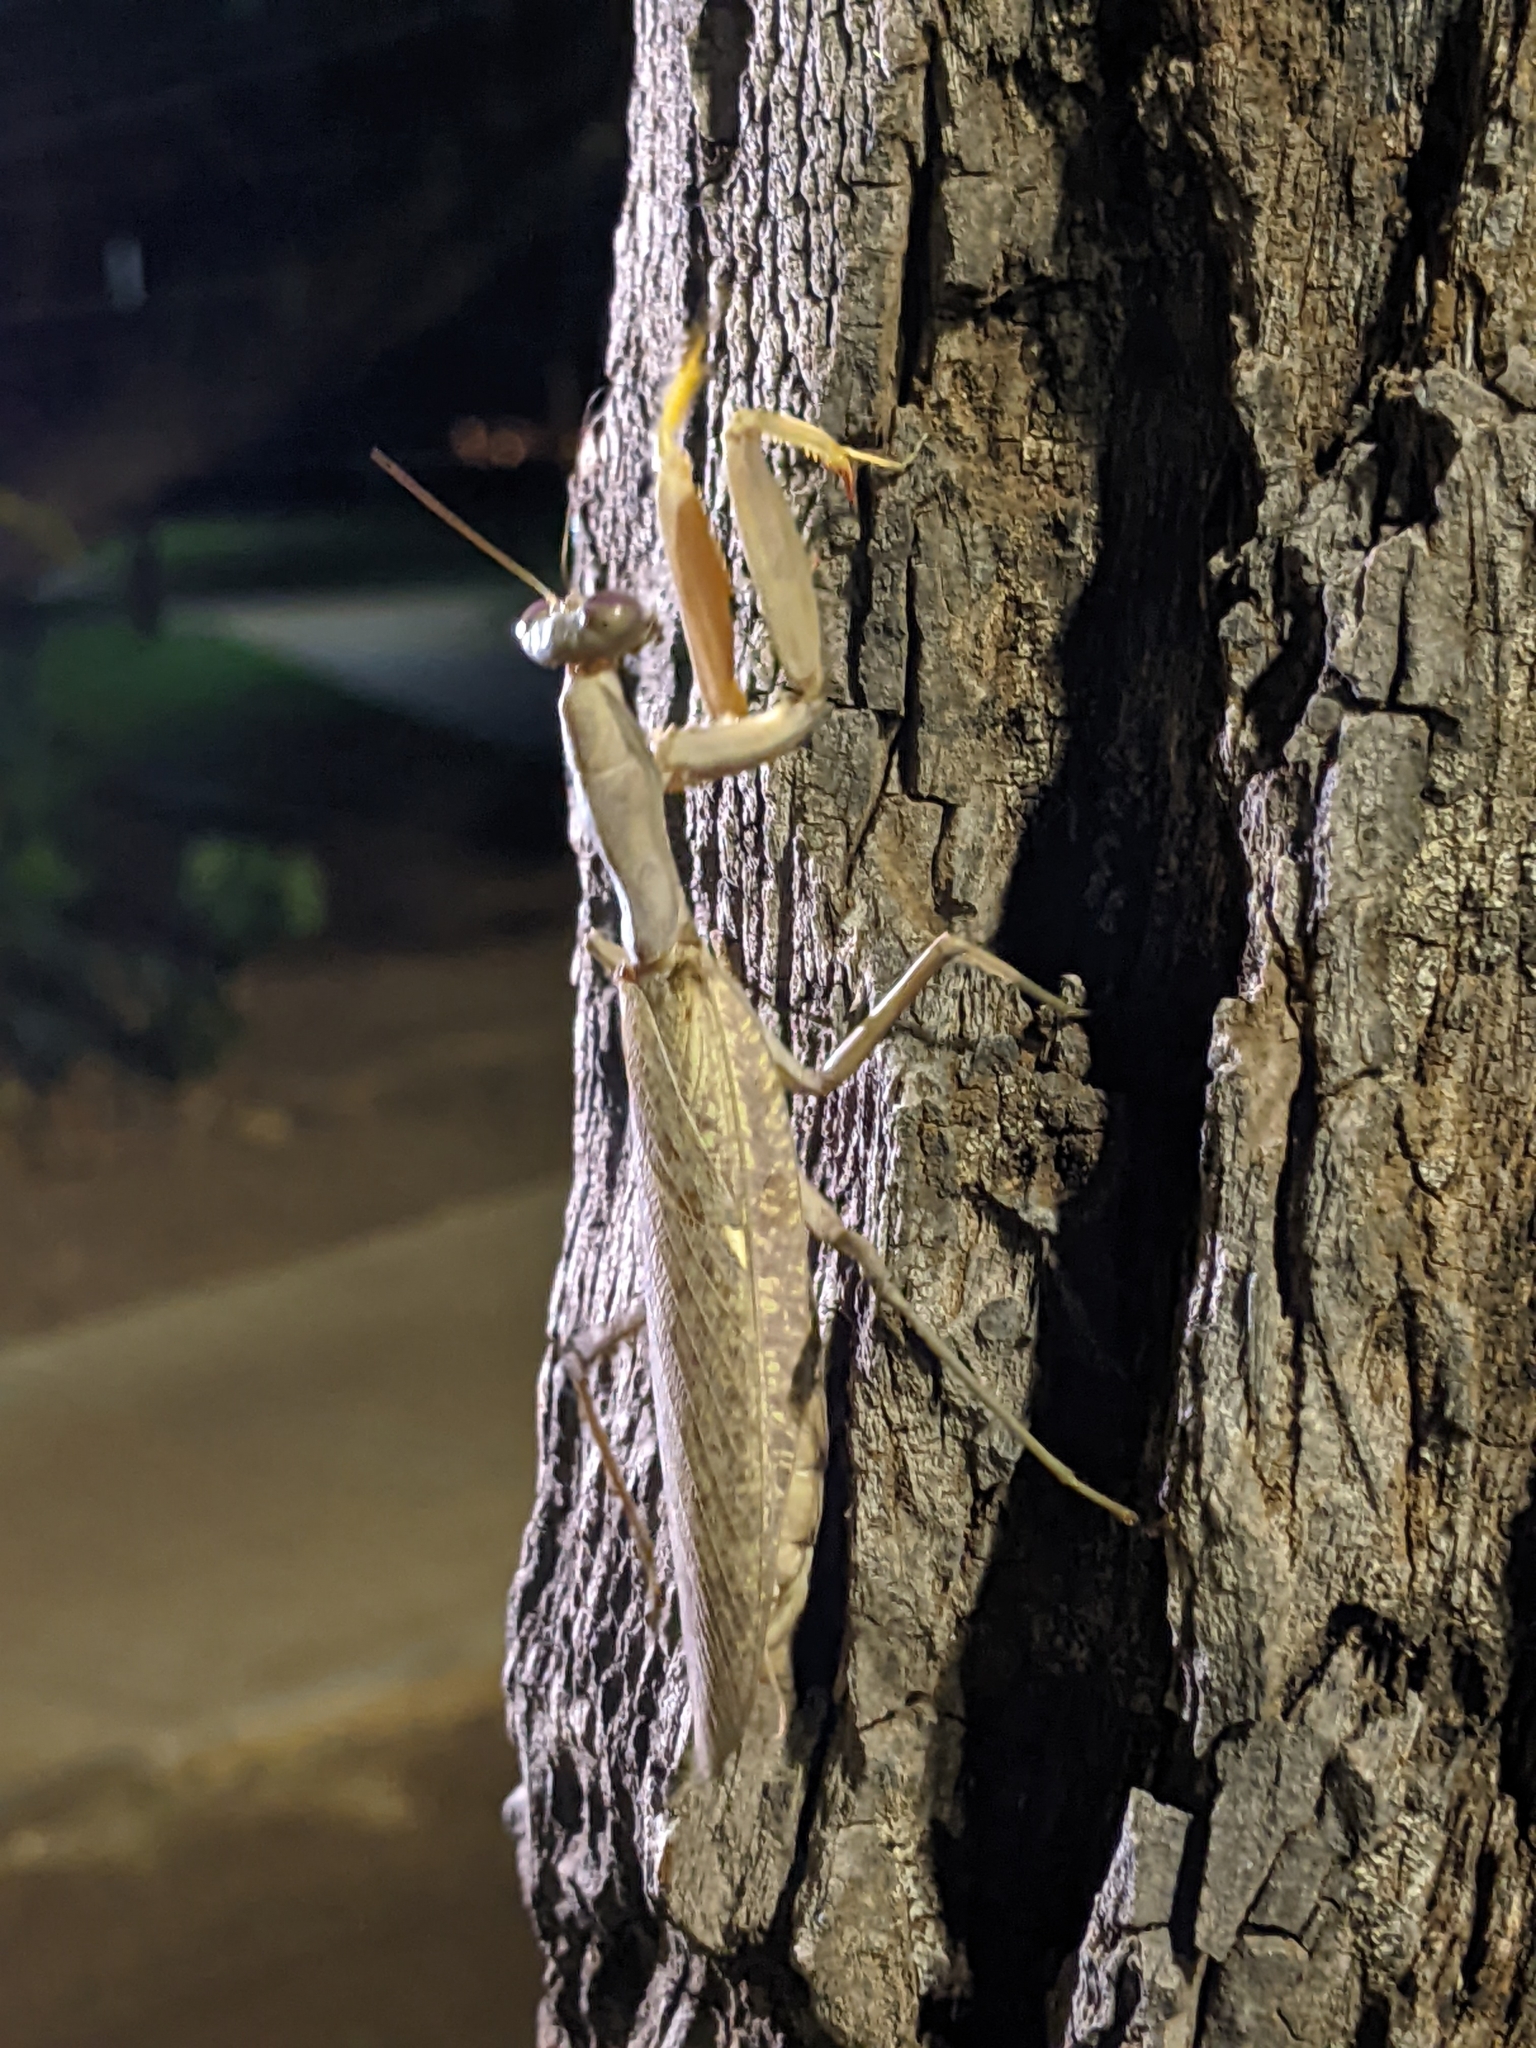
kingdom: Animalia
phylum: Arthropoda
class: Insecta
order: Mantodea
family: Mantidae
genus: Hierodula
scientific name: Hierodula patellifera
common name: Asian mantis
